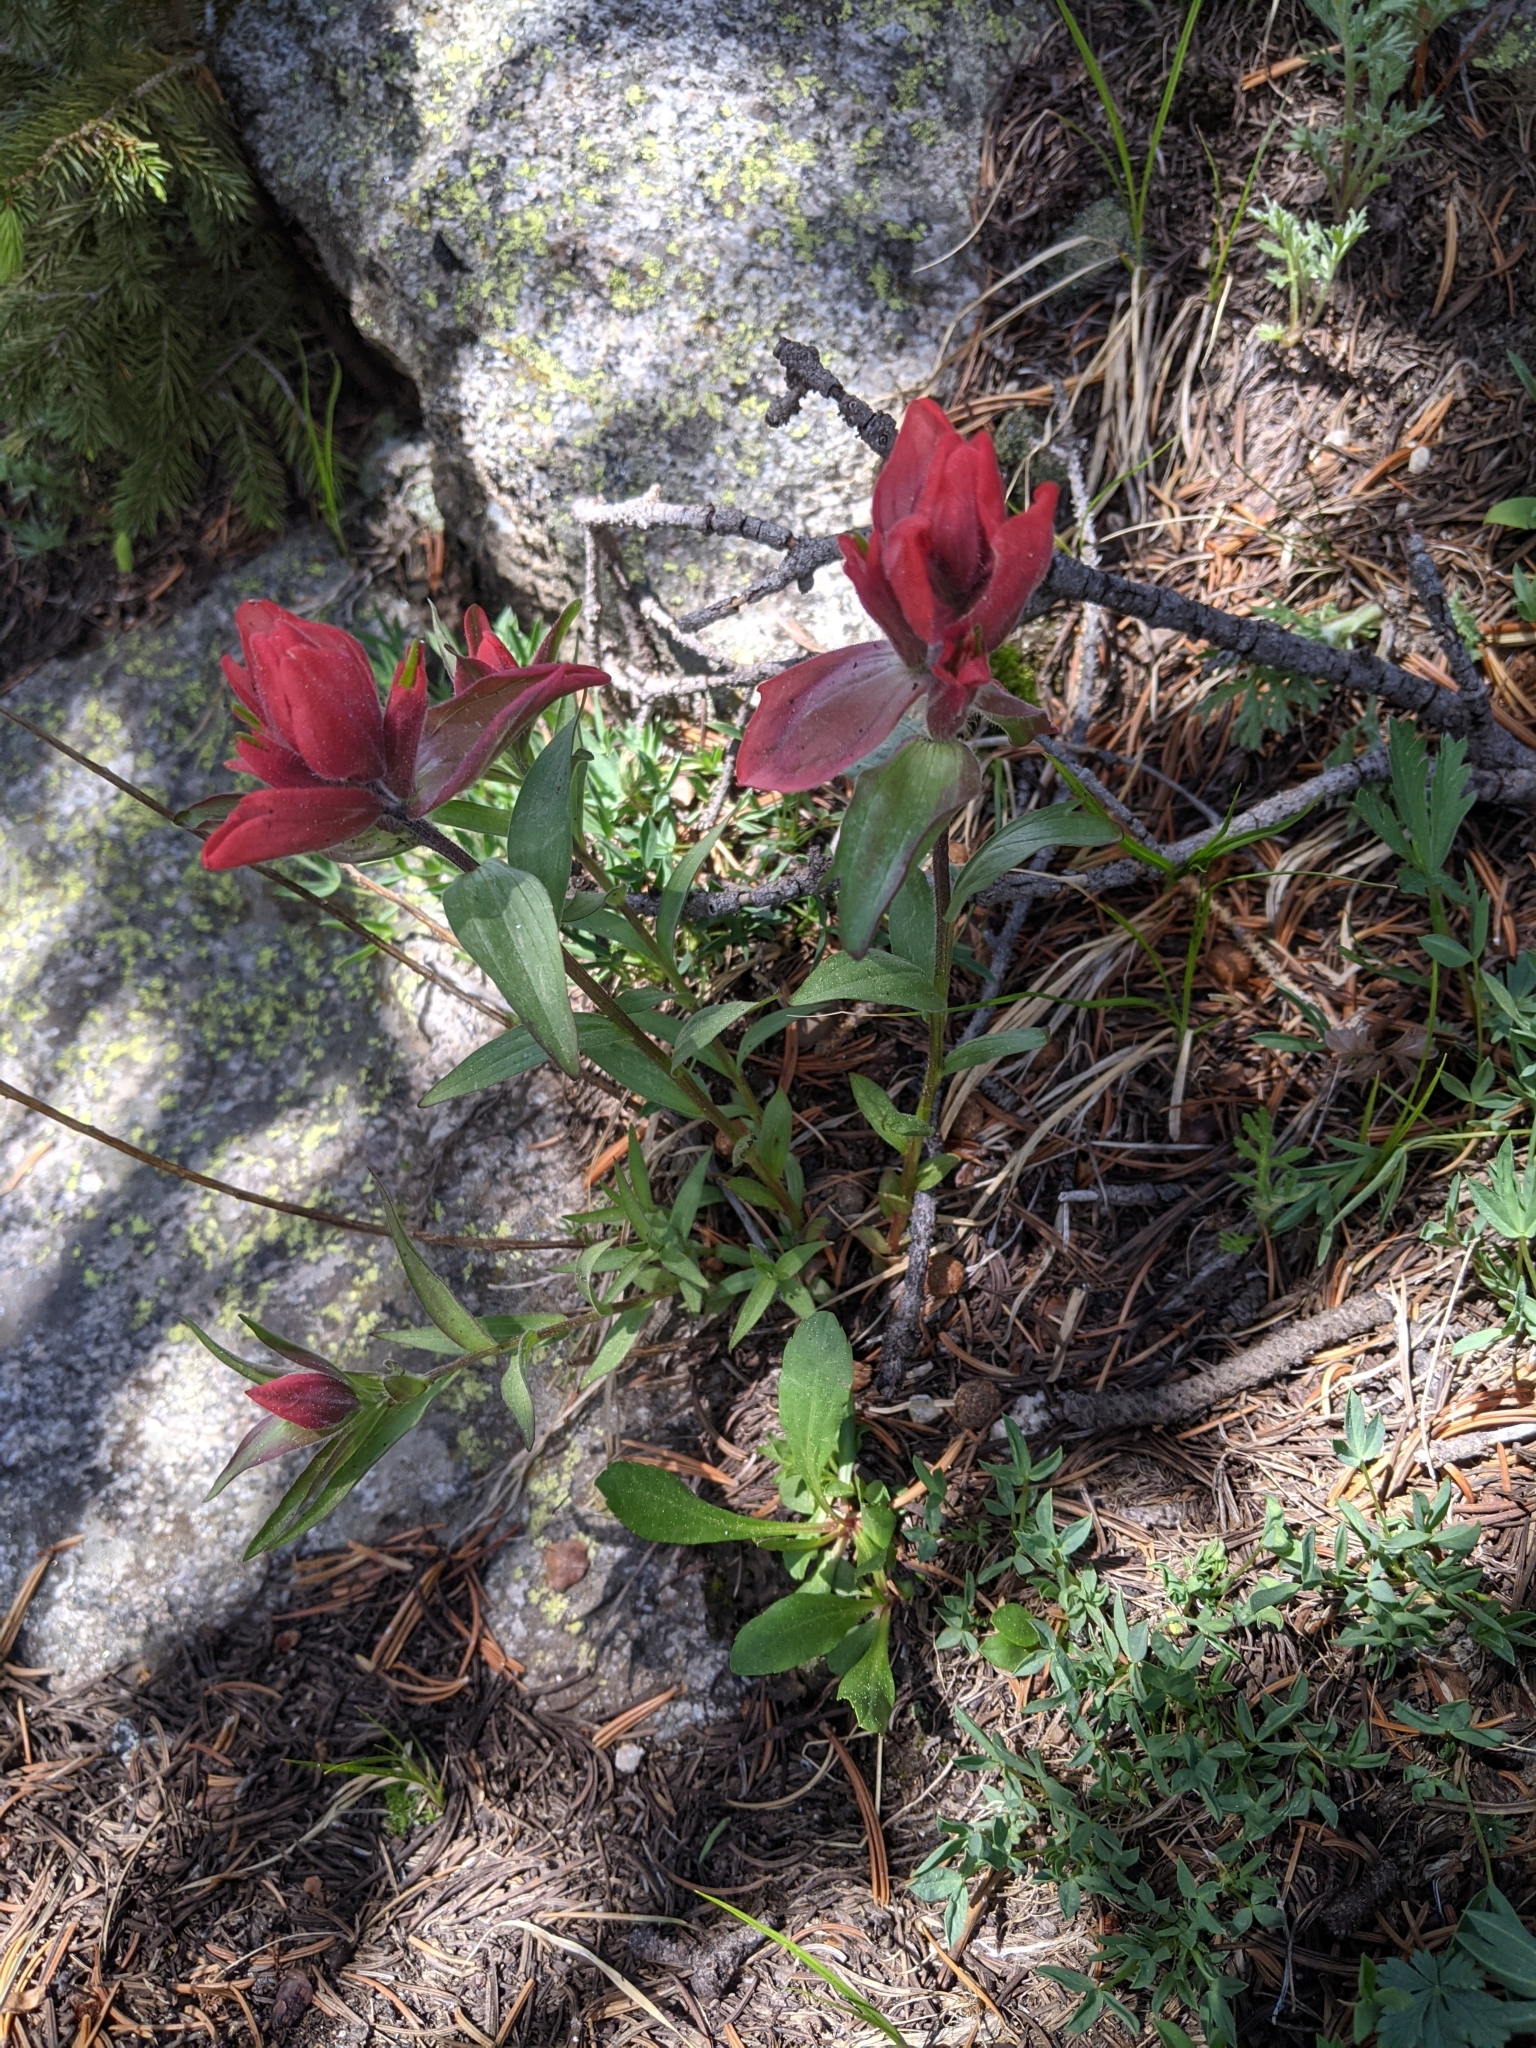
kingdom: Plantae
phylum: Tracheophyta
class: Magnoliopsida
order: Lamiales
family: Orobanchaceae
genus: Castilleja
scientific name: Castilleja miniata
